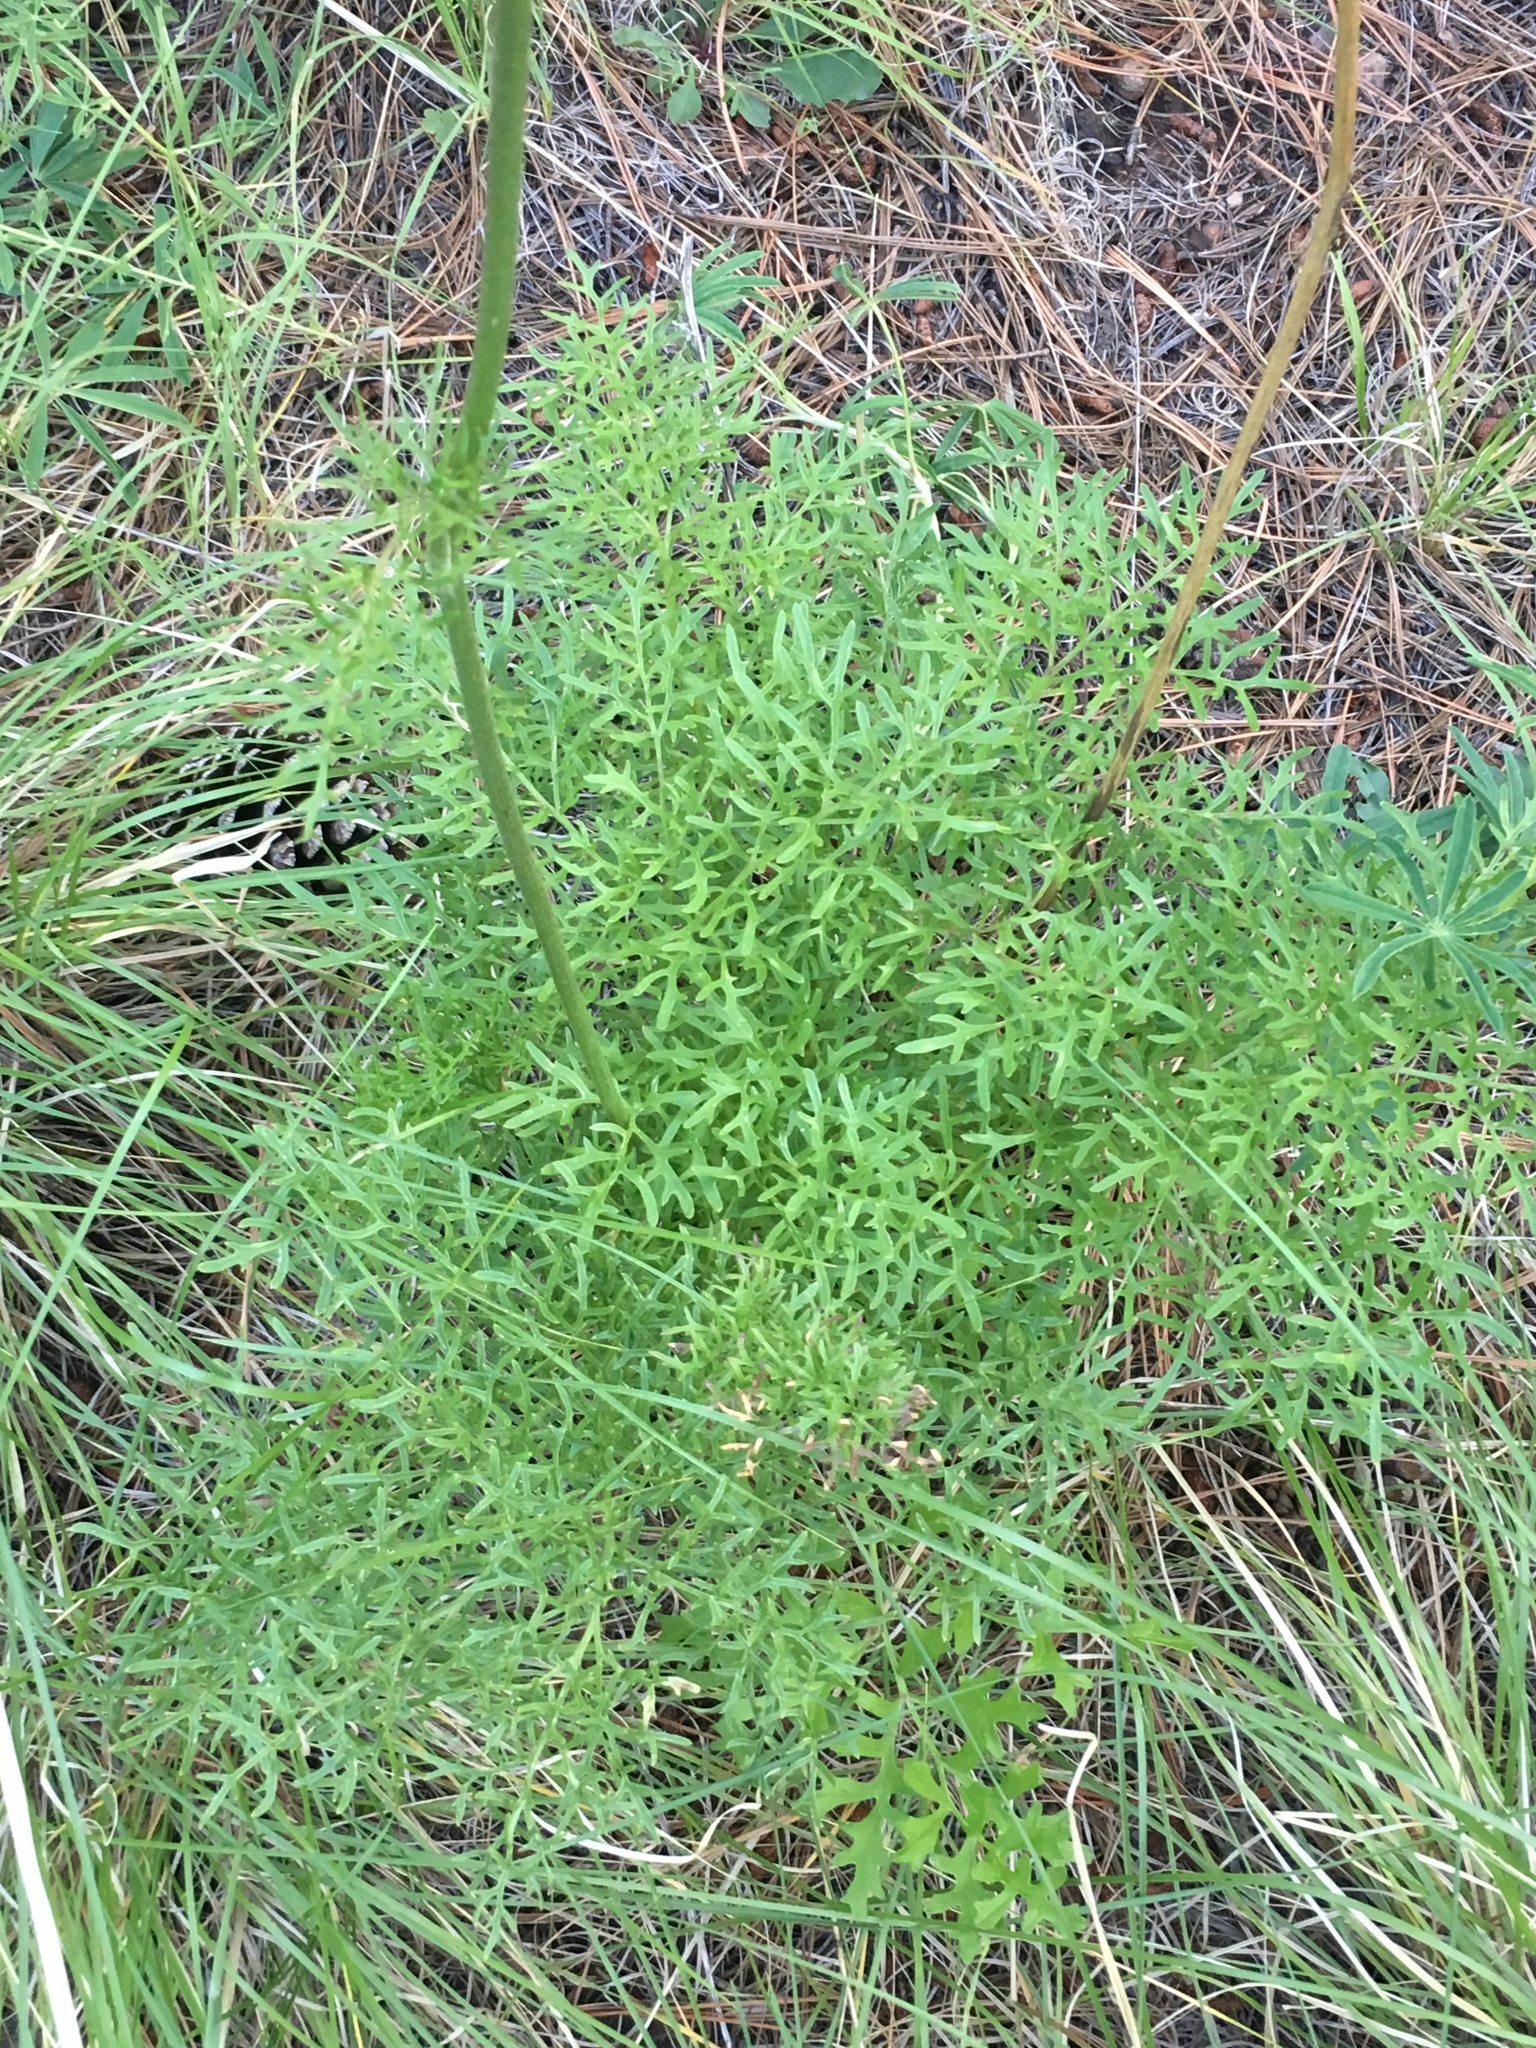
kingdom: Plantae
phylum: Tracheophyta
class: Magnoliopsida
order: Asterales
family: Asteraceae
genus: Psacalium
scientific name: Psacalium decompositum
